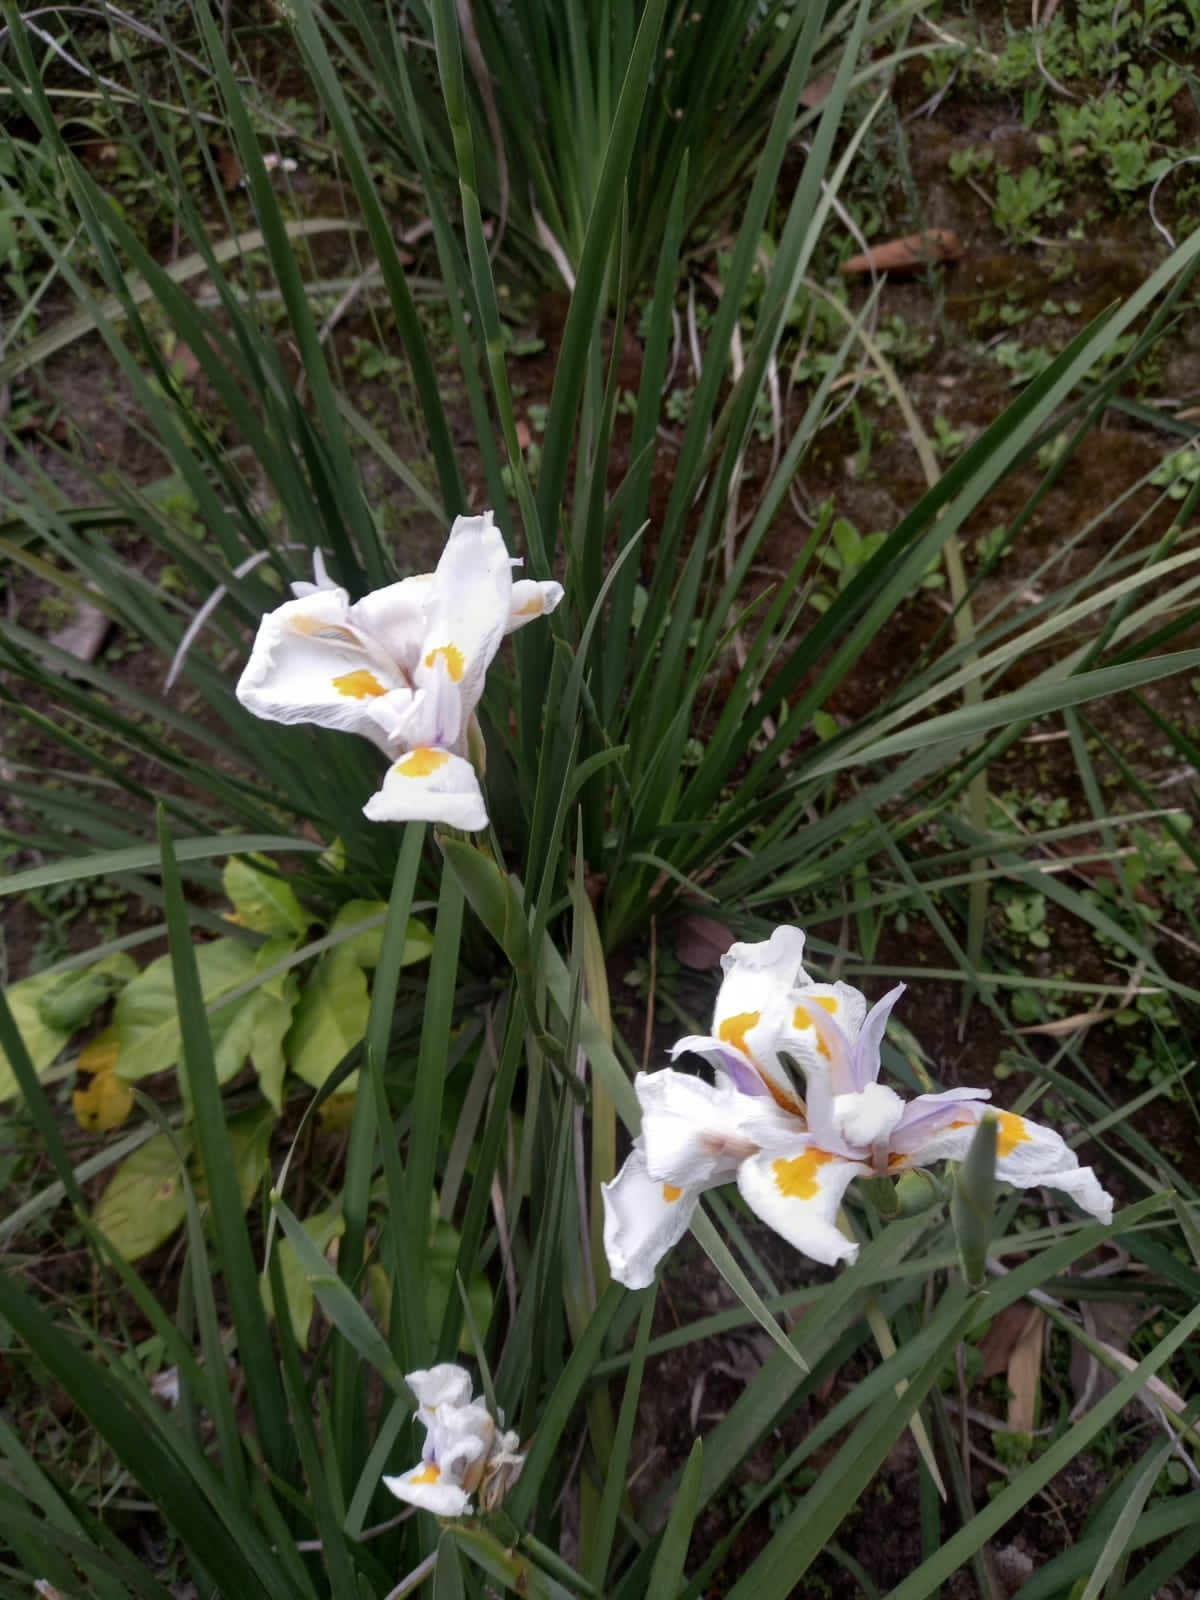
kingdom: Plantae
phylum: Tracheophyta
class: Liliopsida
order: Asparagales
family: Iridaceae
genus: Dietes
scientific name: Dietes grandiflora
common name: Wild iris
